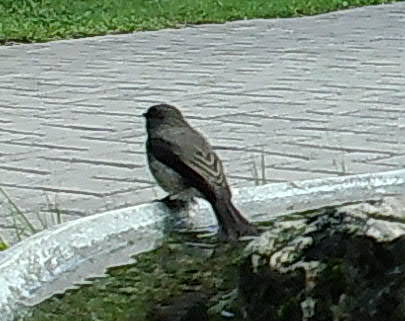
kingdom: Animalia
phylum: Chordata
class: Aves
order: Passeriformes
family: Muscicapidae
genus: Muscicapa
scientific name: Muscicapa striata
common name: Spotted flycatcher
